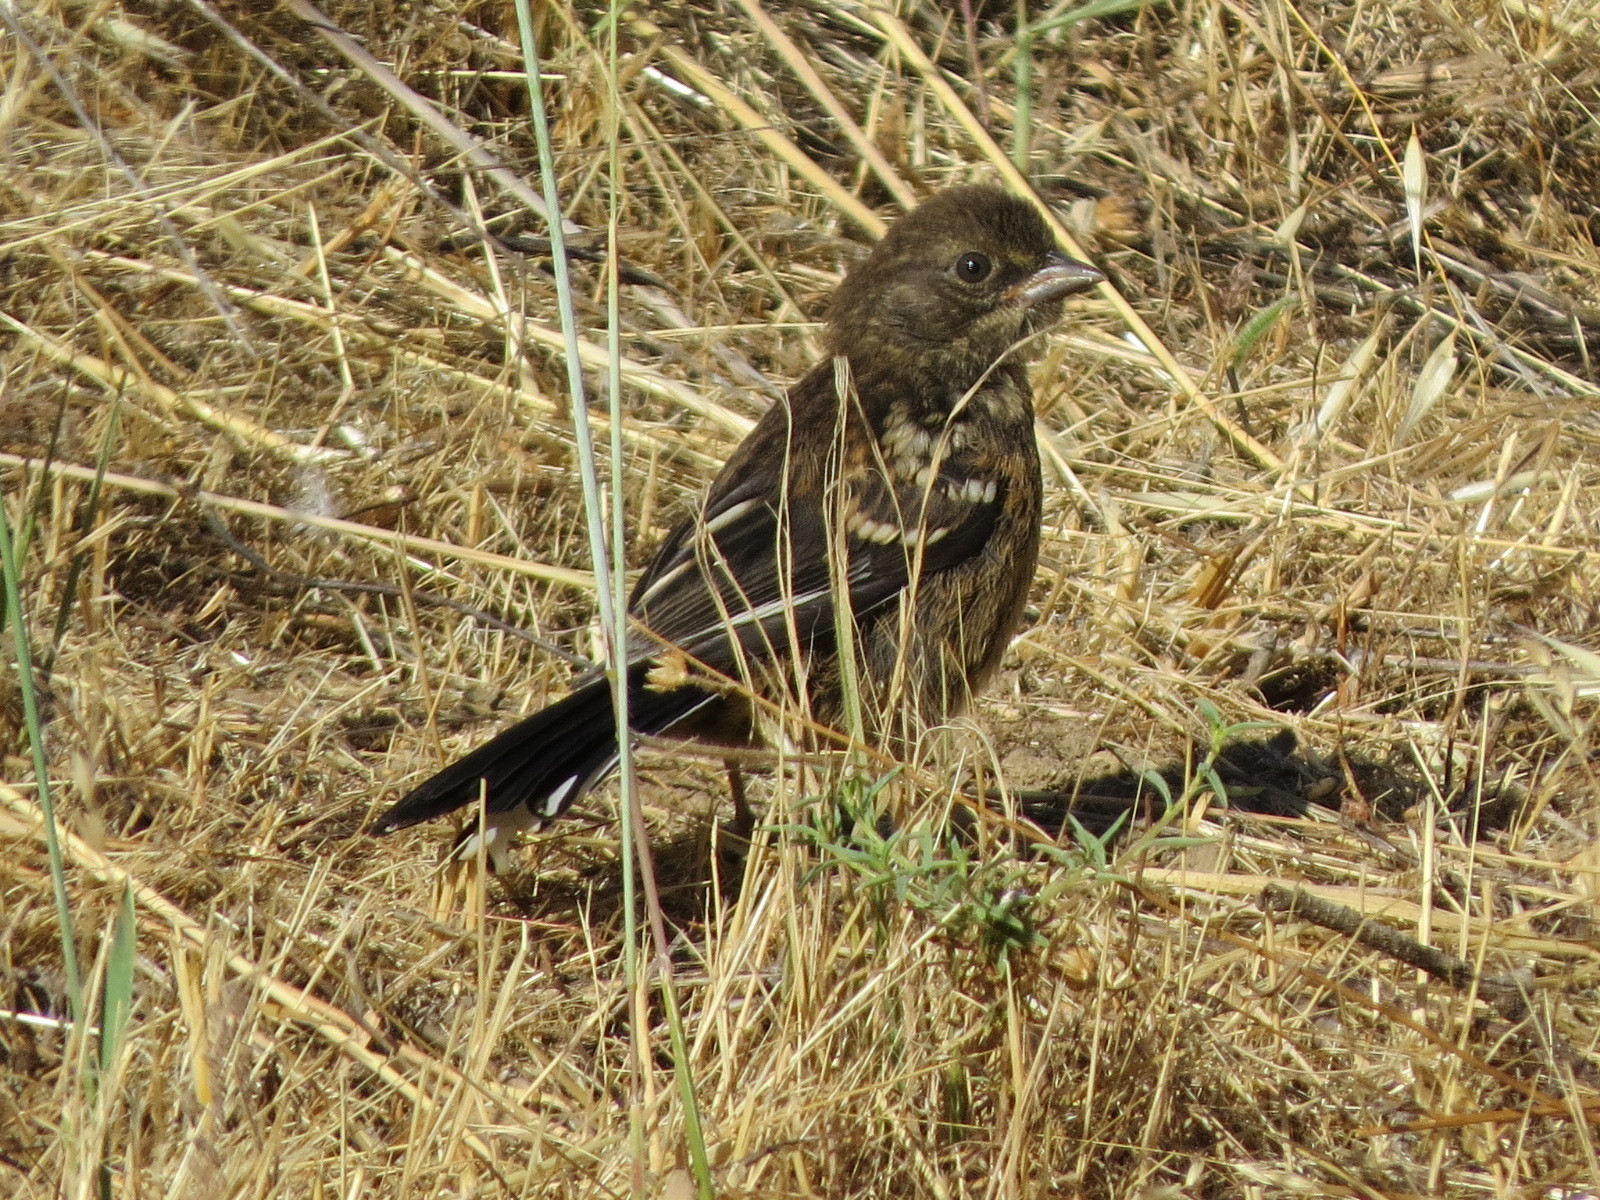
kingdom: Animalia
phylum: Chordata
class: Aves
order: Passeriformes
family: Passerellidae
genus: Pipilo
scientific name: Pipilo maculatus
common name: Spotted towhee
